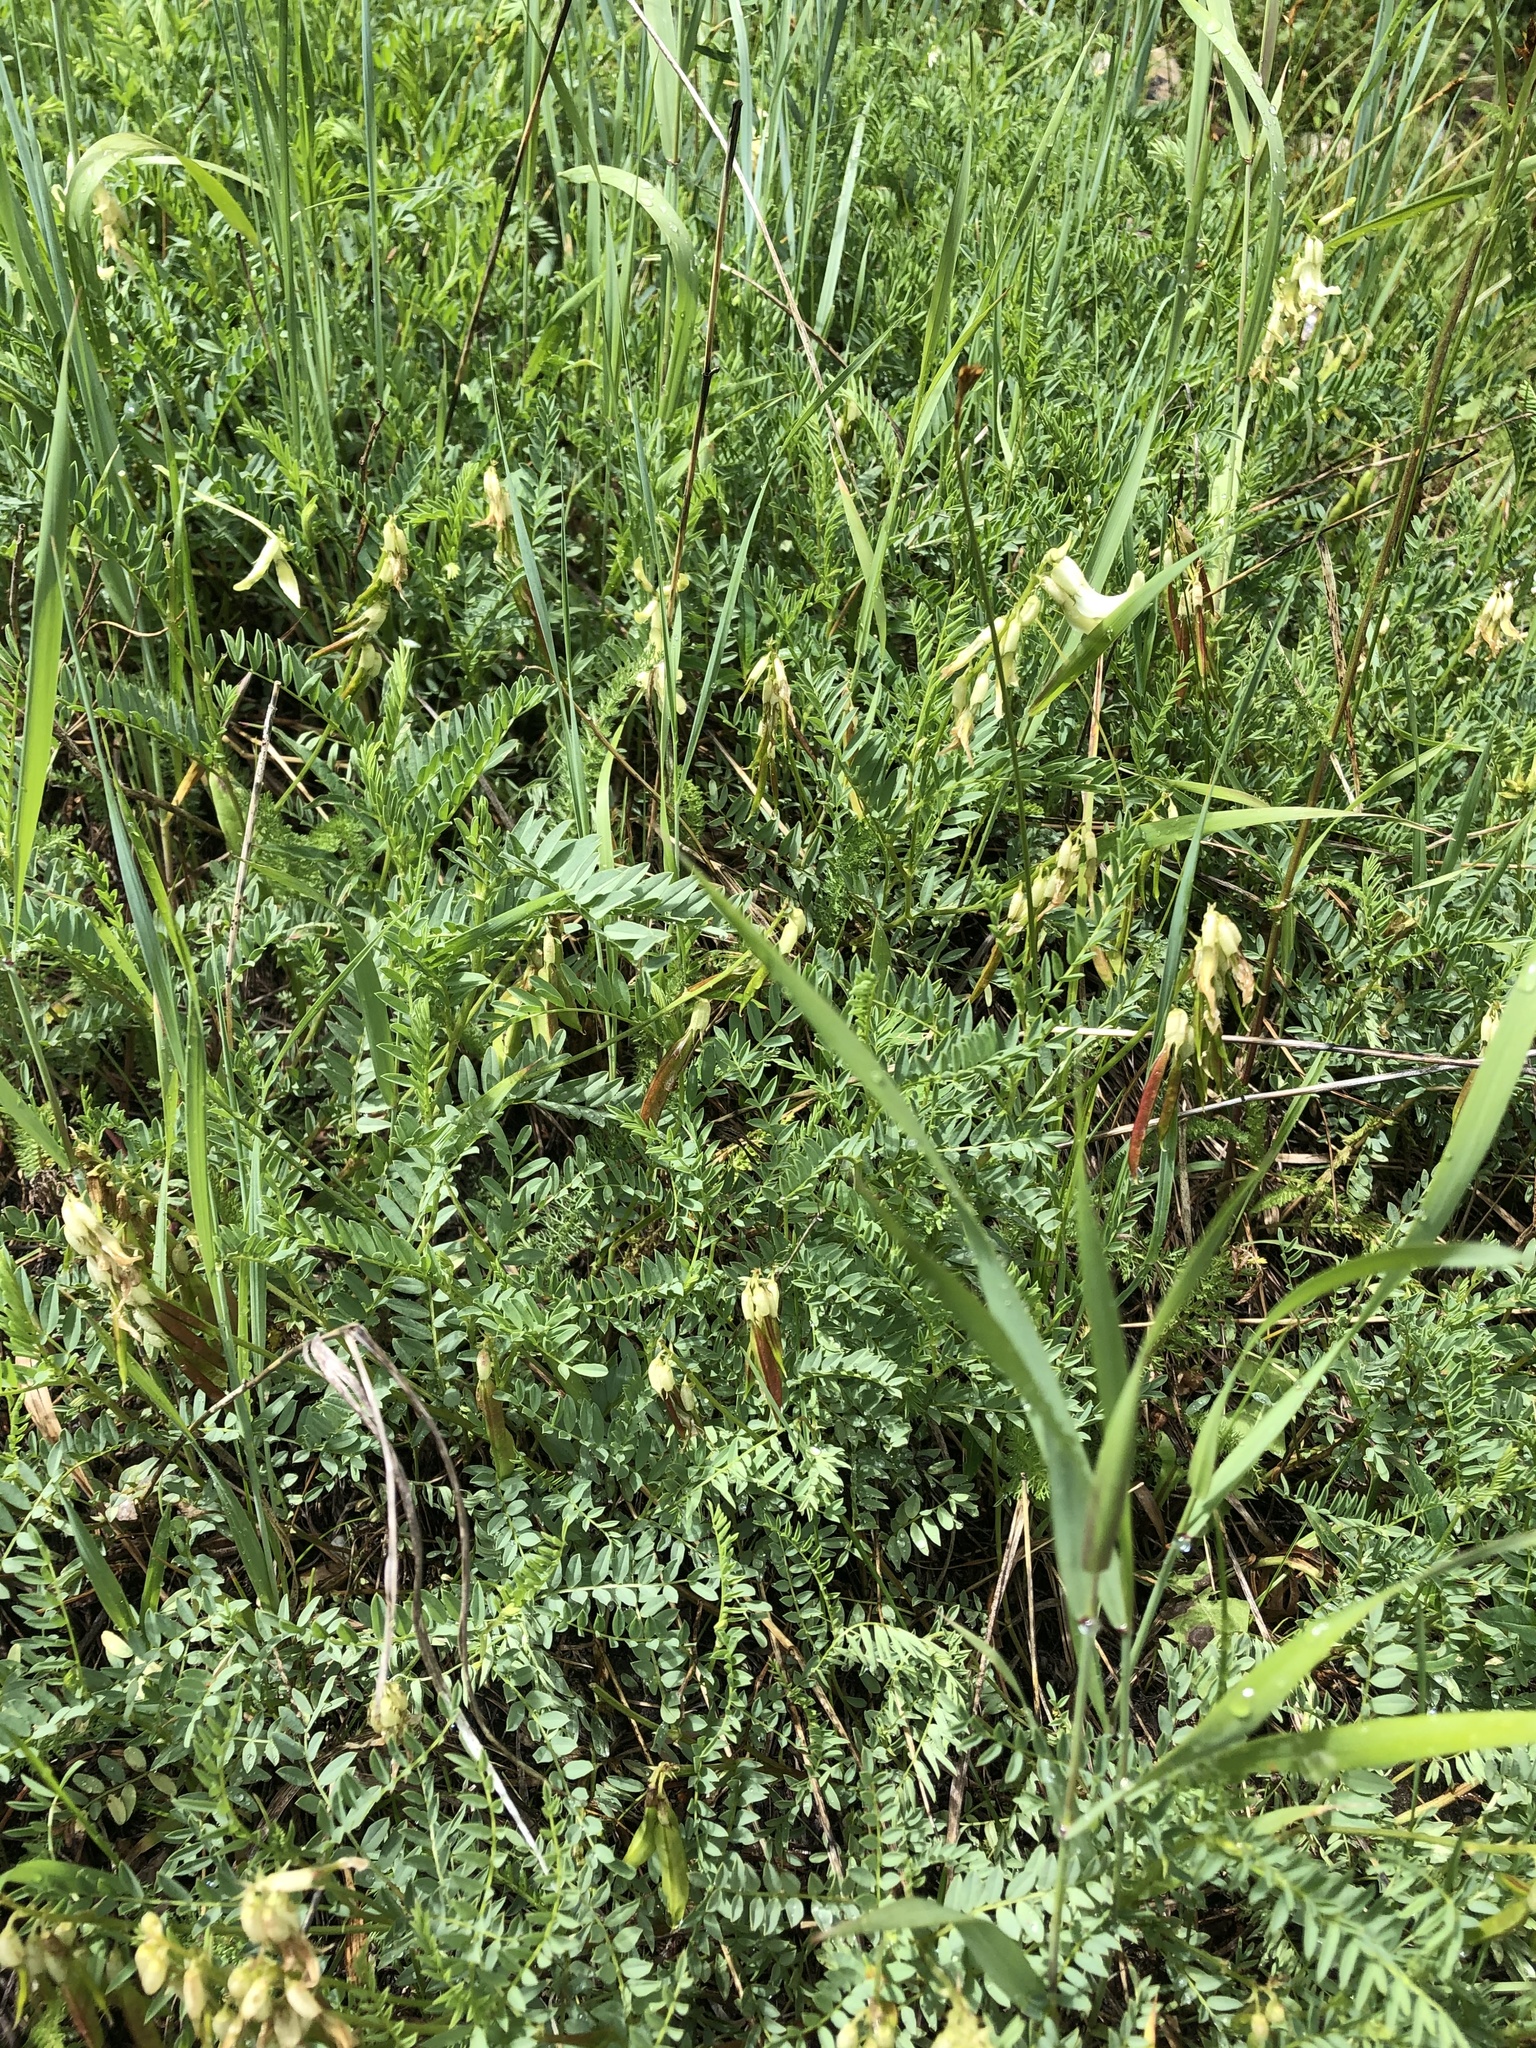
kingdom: Plantae
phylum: Tracheophyta
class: Magnoliopsida
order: Fabales
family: Fabaceae
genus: Astragalus
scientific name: Astragalus scopulorum
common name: Rocky mountain milk-vetch
